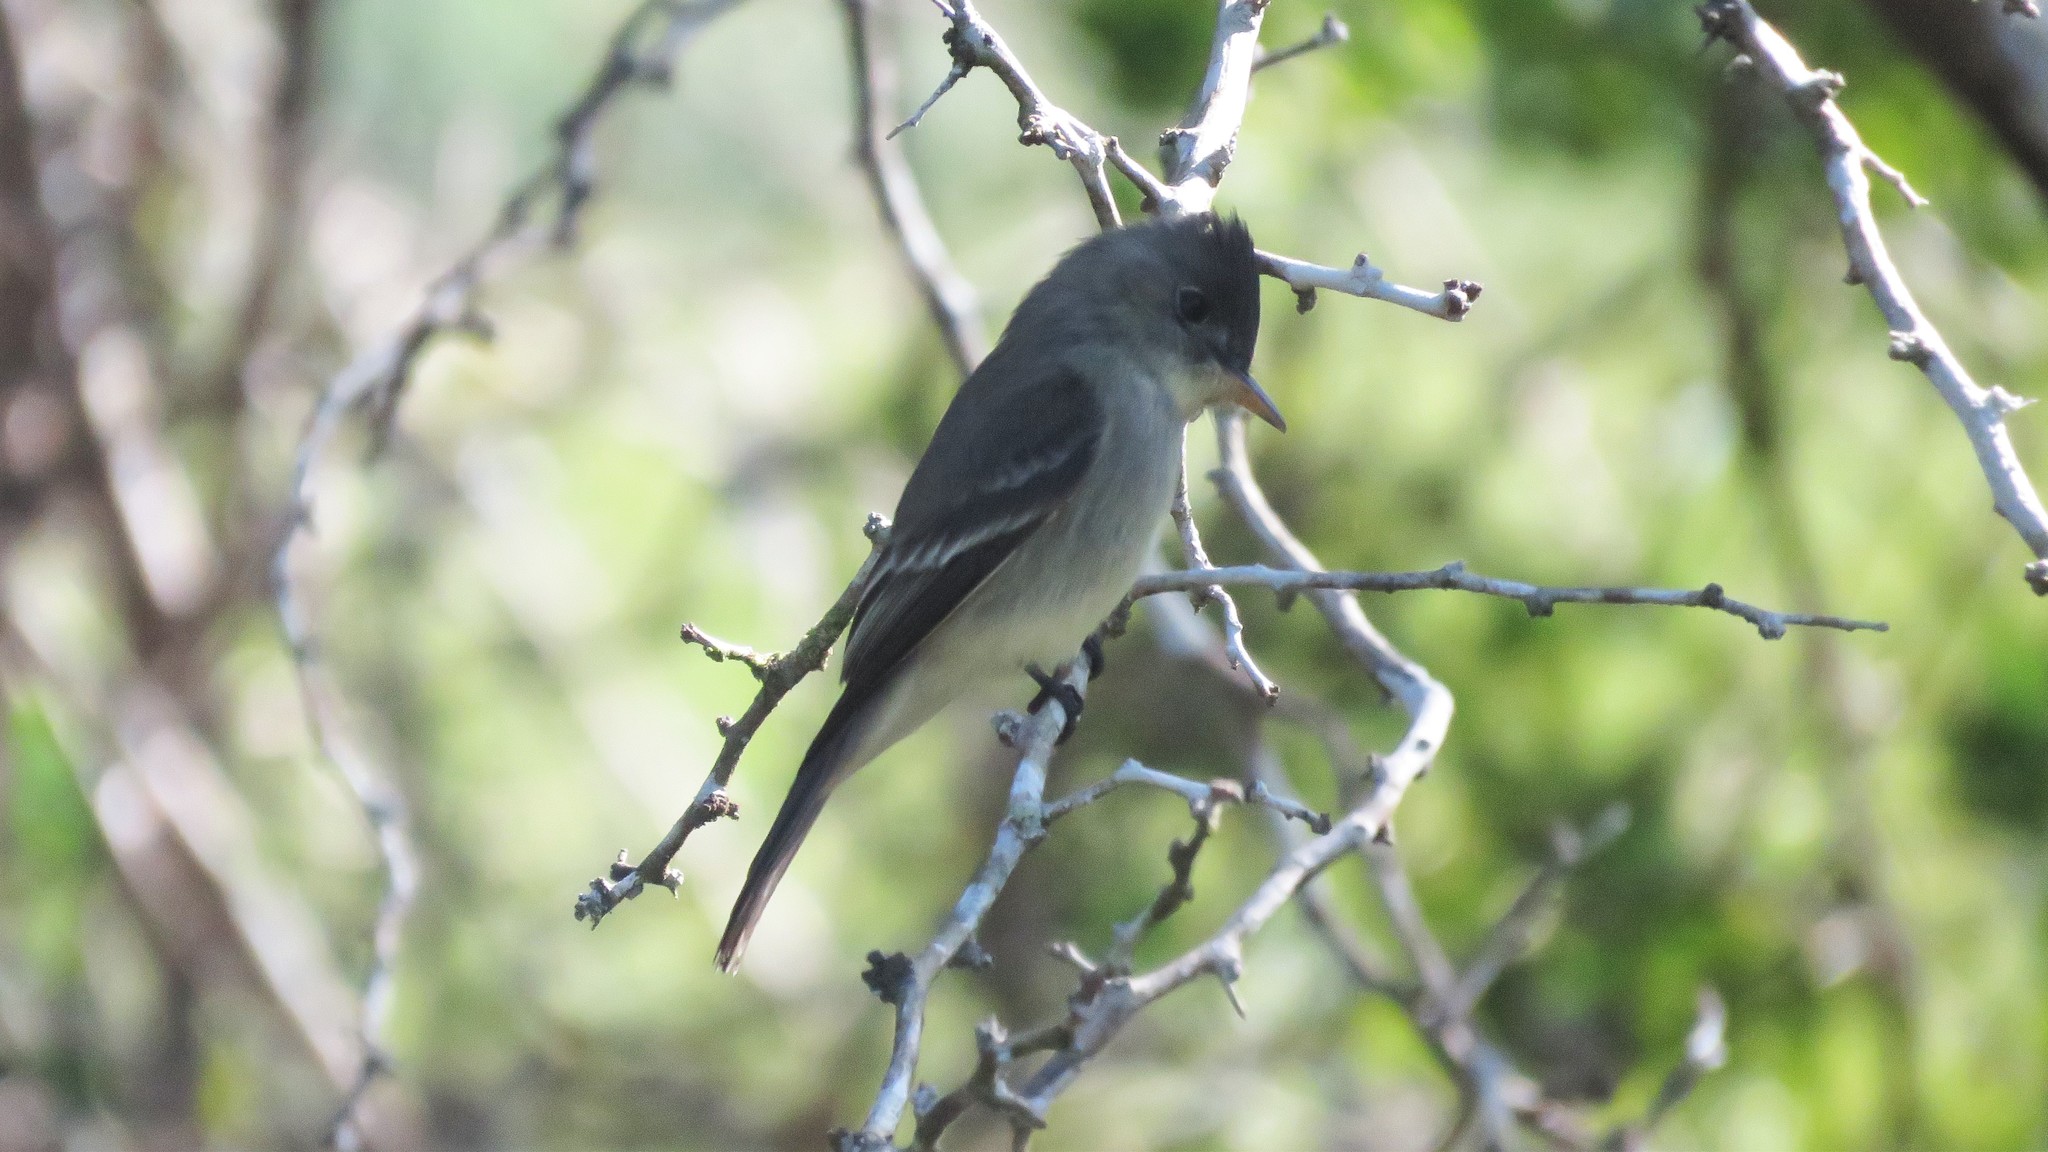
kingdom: Animalia
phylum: Chordata
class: Aves
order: Passeriformes
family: Tyrannidae
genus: Contopus
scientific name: Contopus cinereus
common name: Tropical pewee
